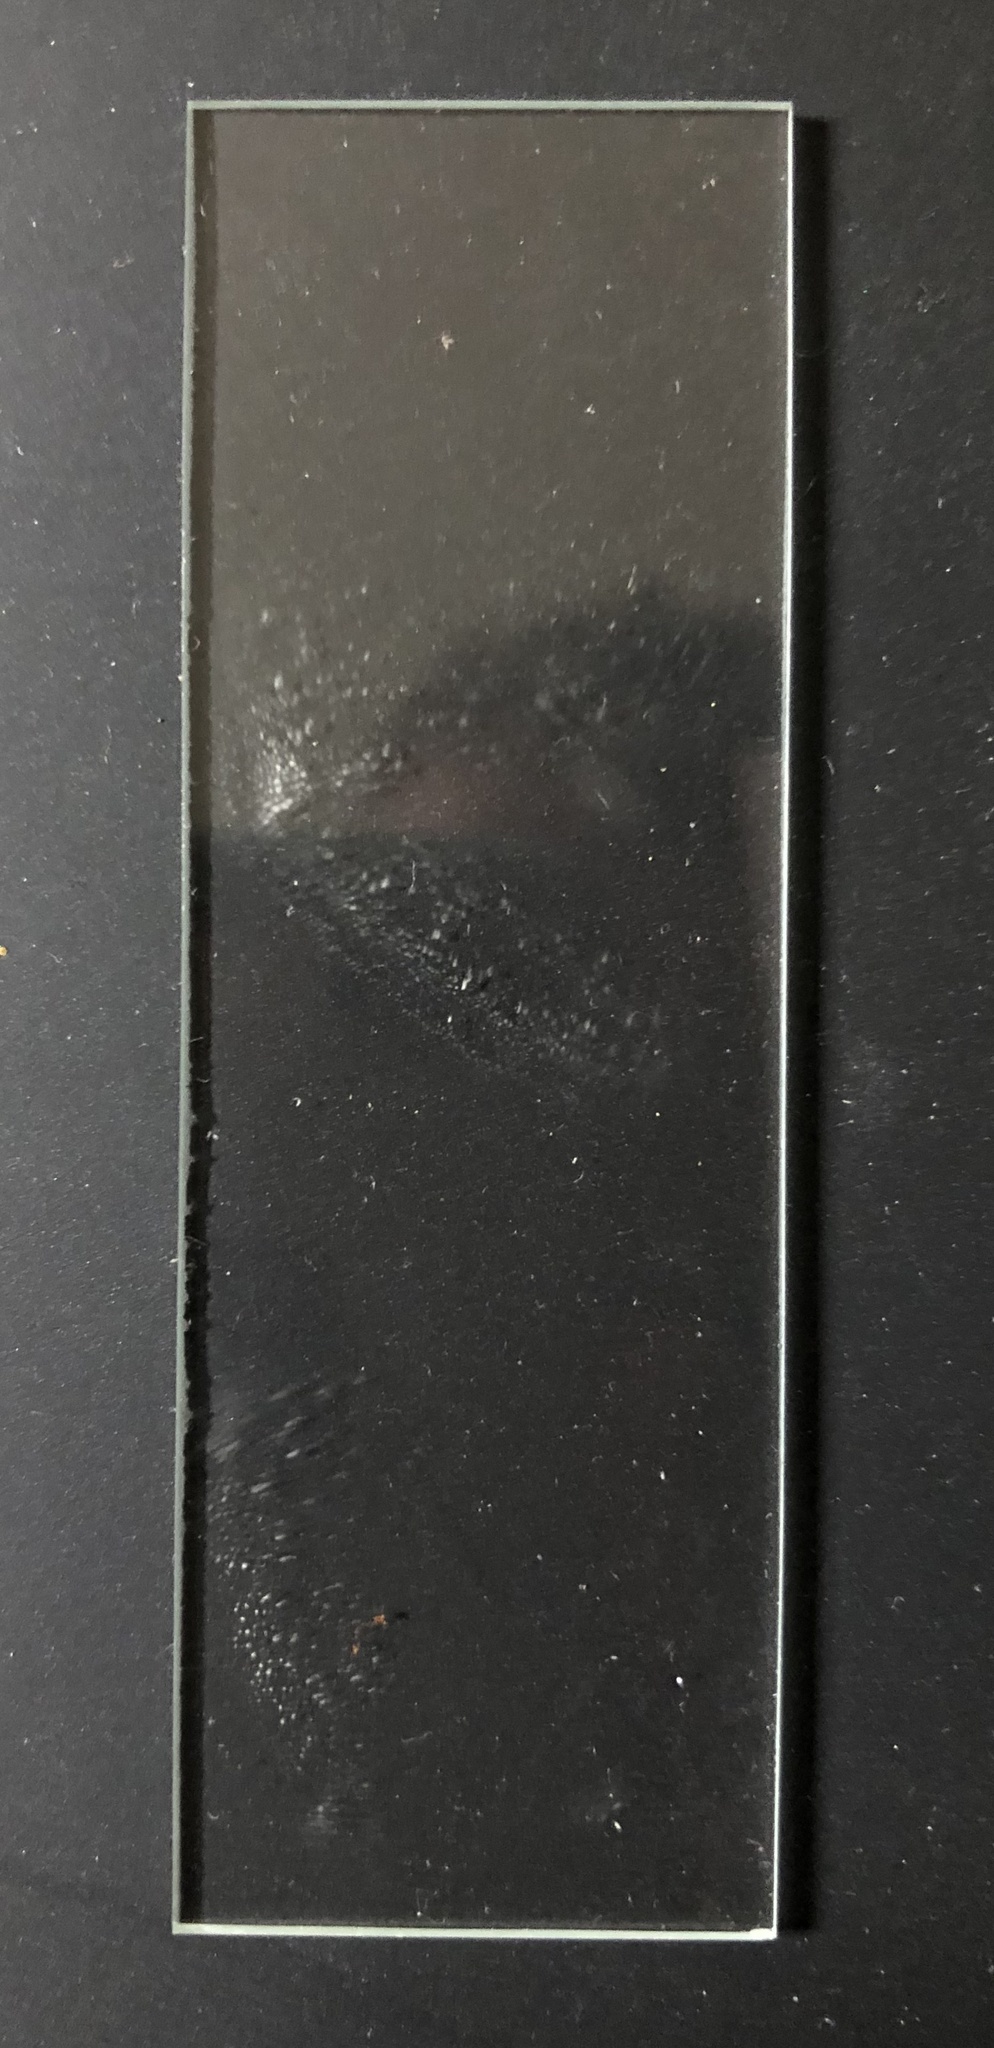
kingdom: Fungi
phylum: Basidiomycota
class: Agaricomycetes
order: Hymenochaetales
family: Hymenochaetaceae
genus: Phellinus
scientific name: Phellinus gilvus
